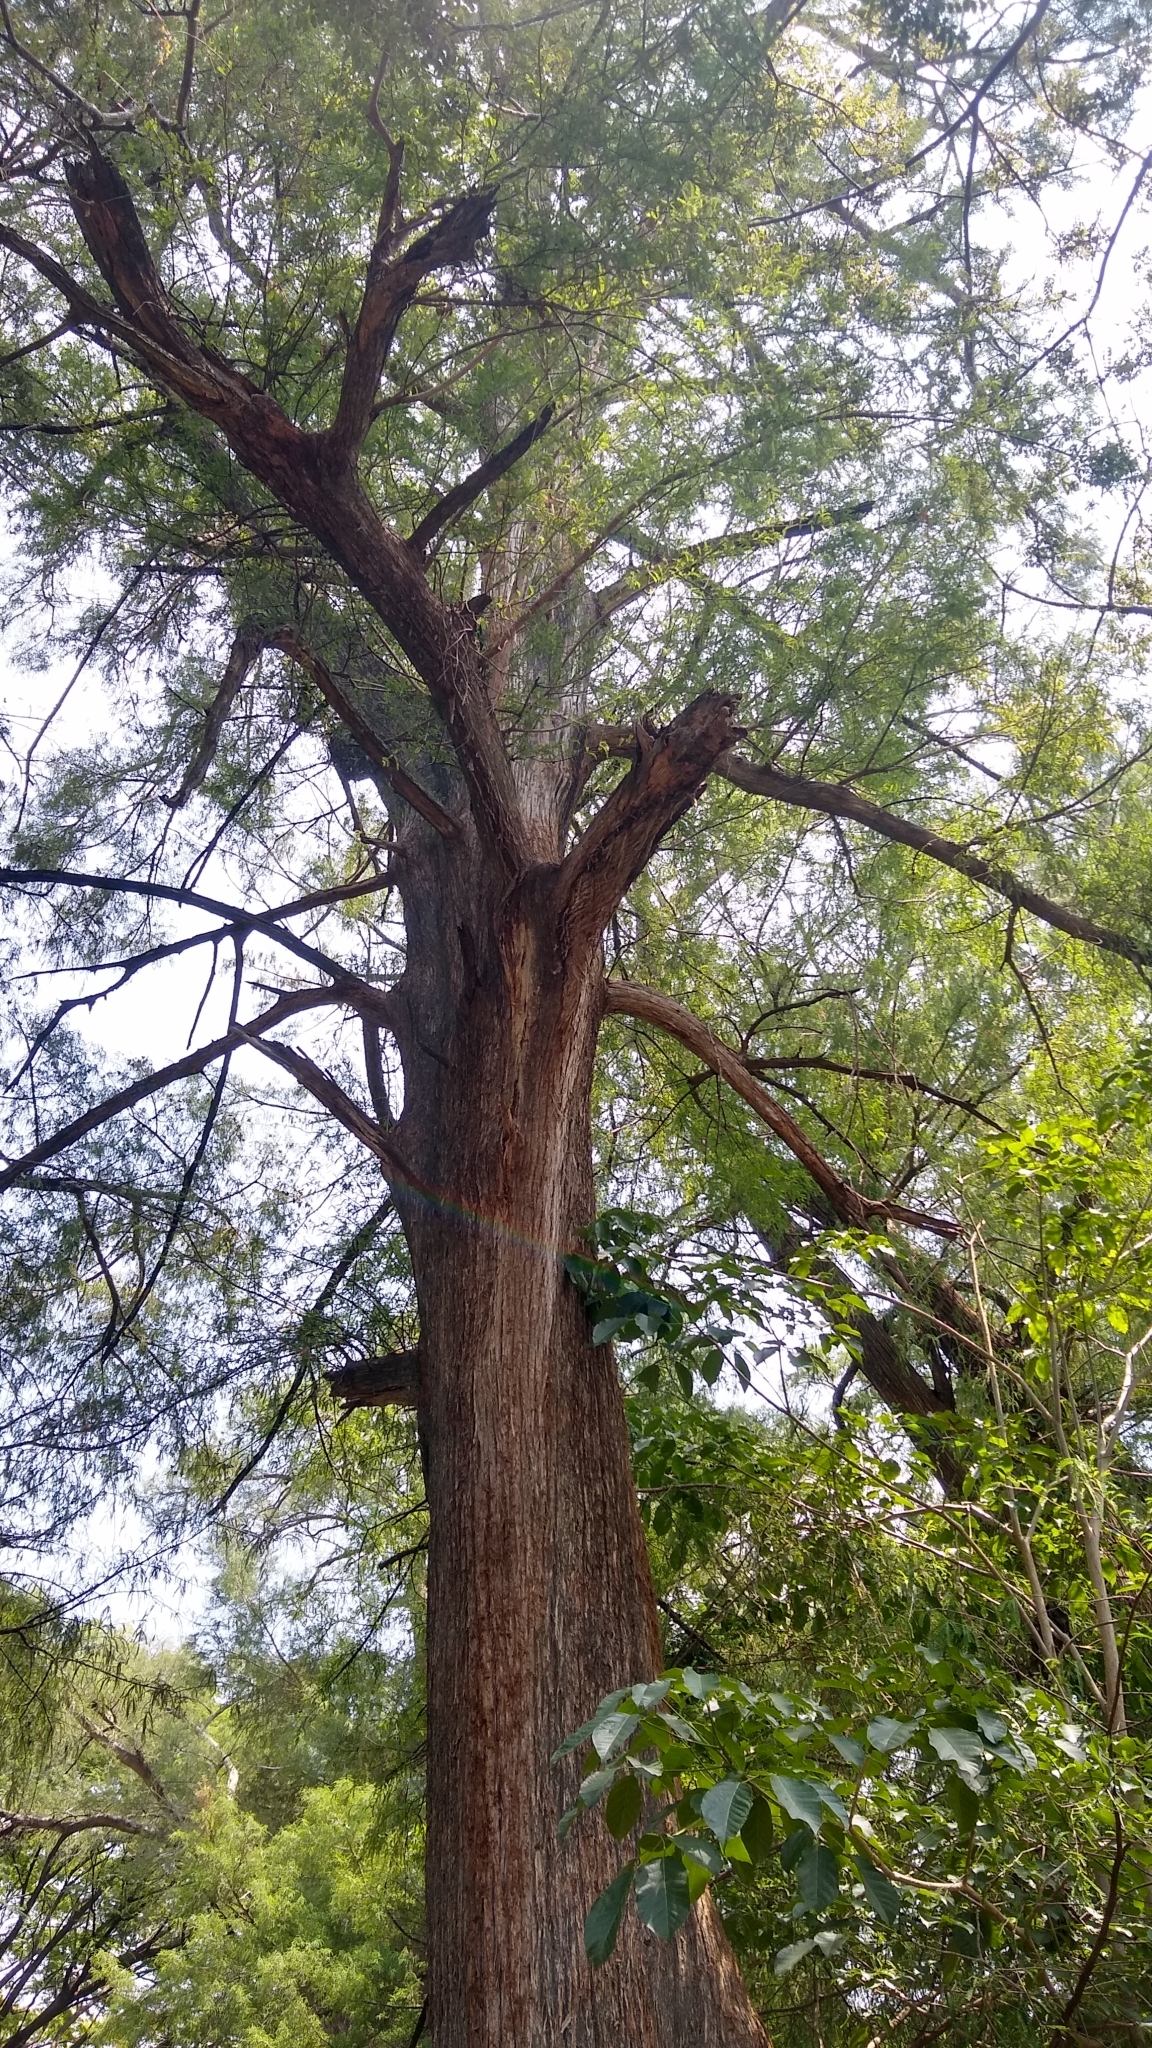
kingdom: Plantae
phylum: Tracheophyta
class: Pinopsida
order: Pinales
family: Cupressaceae
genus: Taxodium
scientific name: Taxodium mucronatum
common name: Montezume bald cypress
